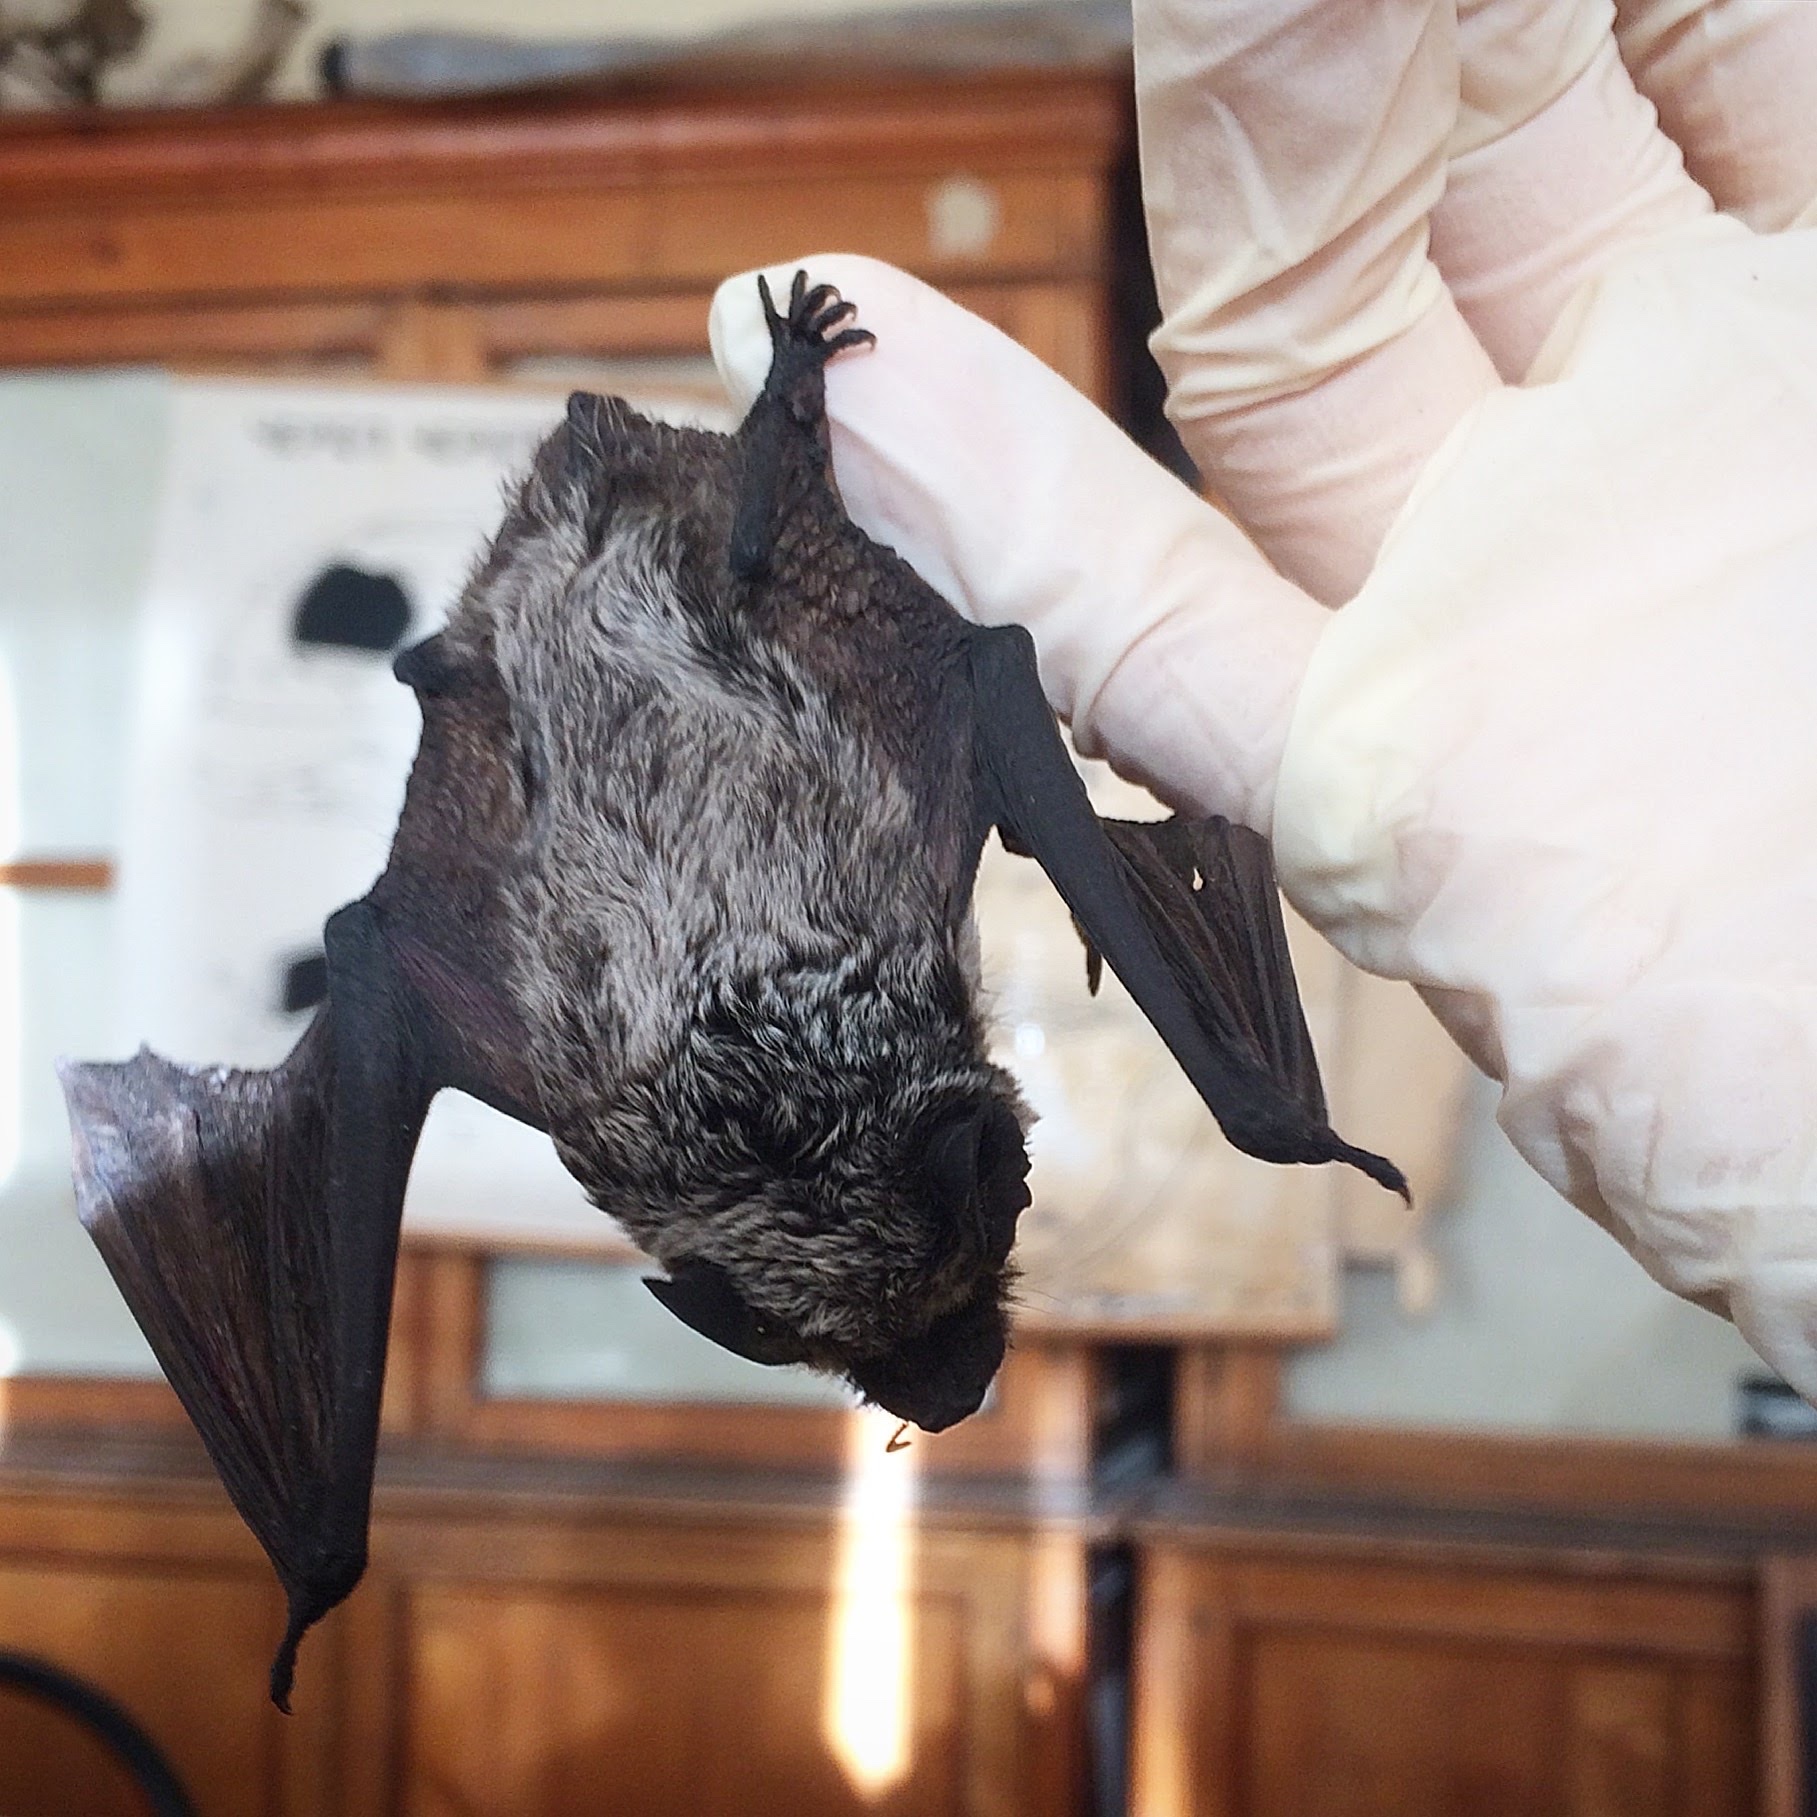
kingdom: Animalia
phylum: Chordata
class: Mammalia
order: Chiroptera
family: Vespertilionidae
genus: Vespertilio
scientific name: Vespertilio murinus
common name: Particolored bat
